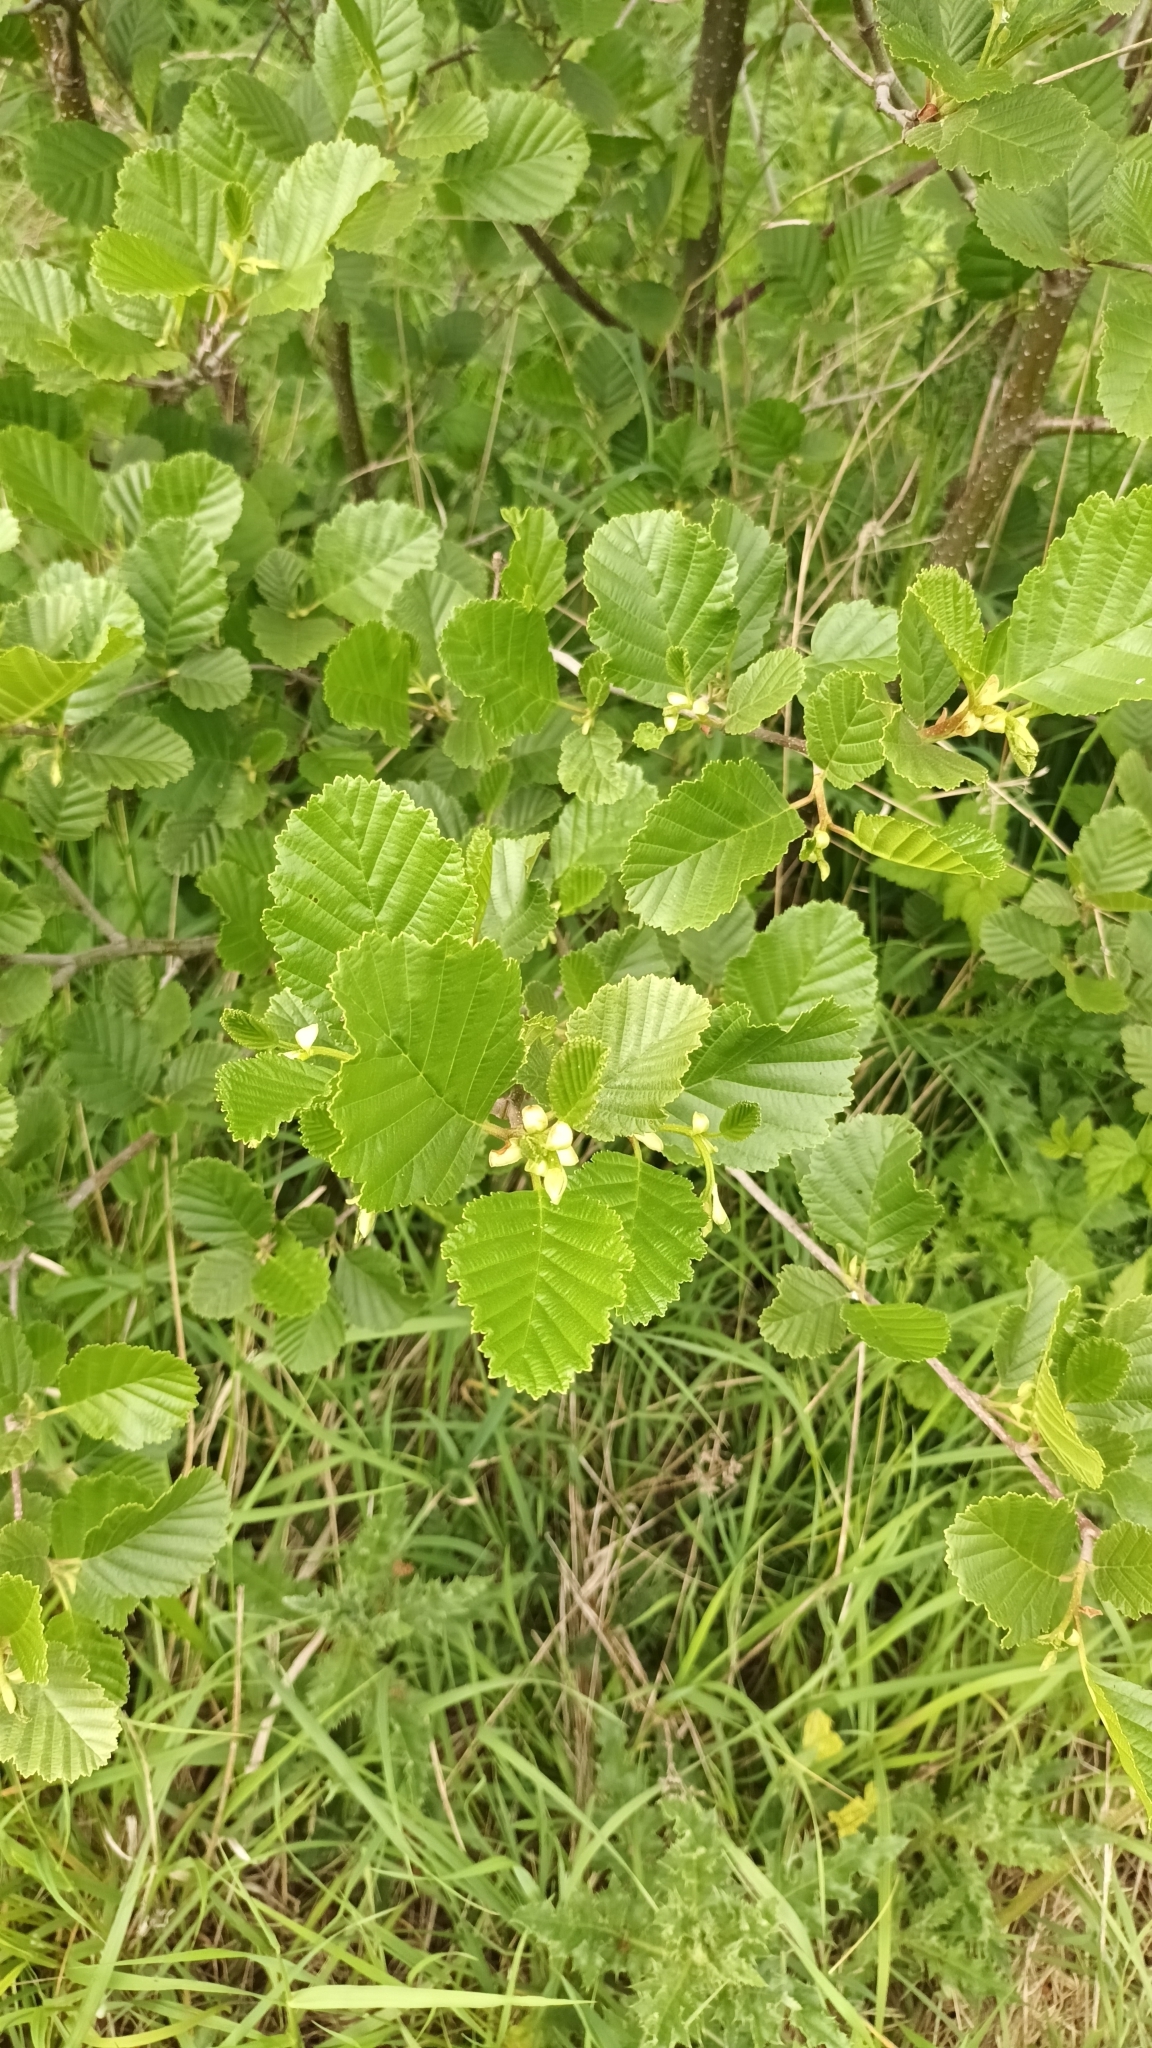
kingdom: Plantae
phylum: Tracheophyta
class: Magnoliopsida
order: Fagales
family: Betulaceae
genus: Alnus
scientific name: Alnus glutinosa
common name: Black alder
